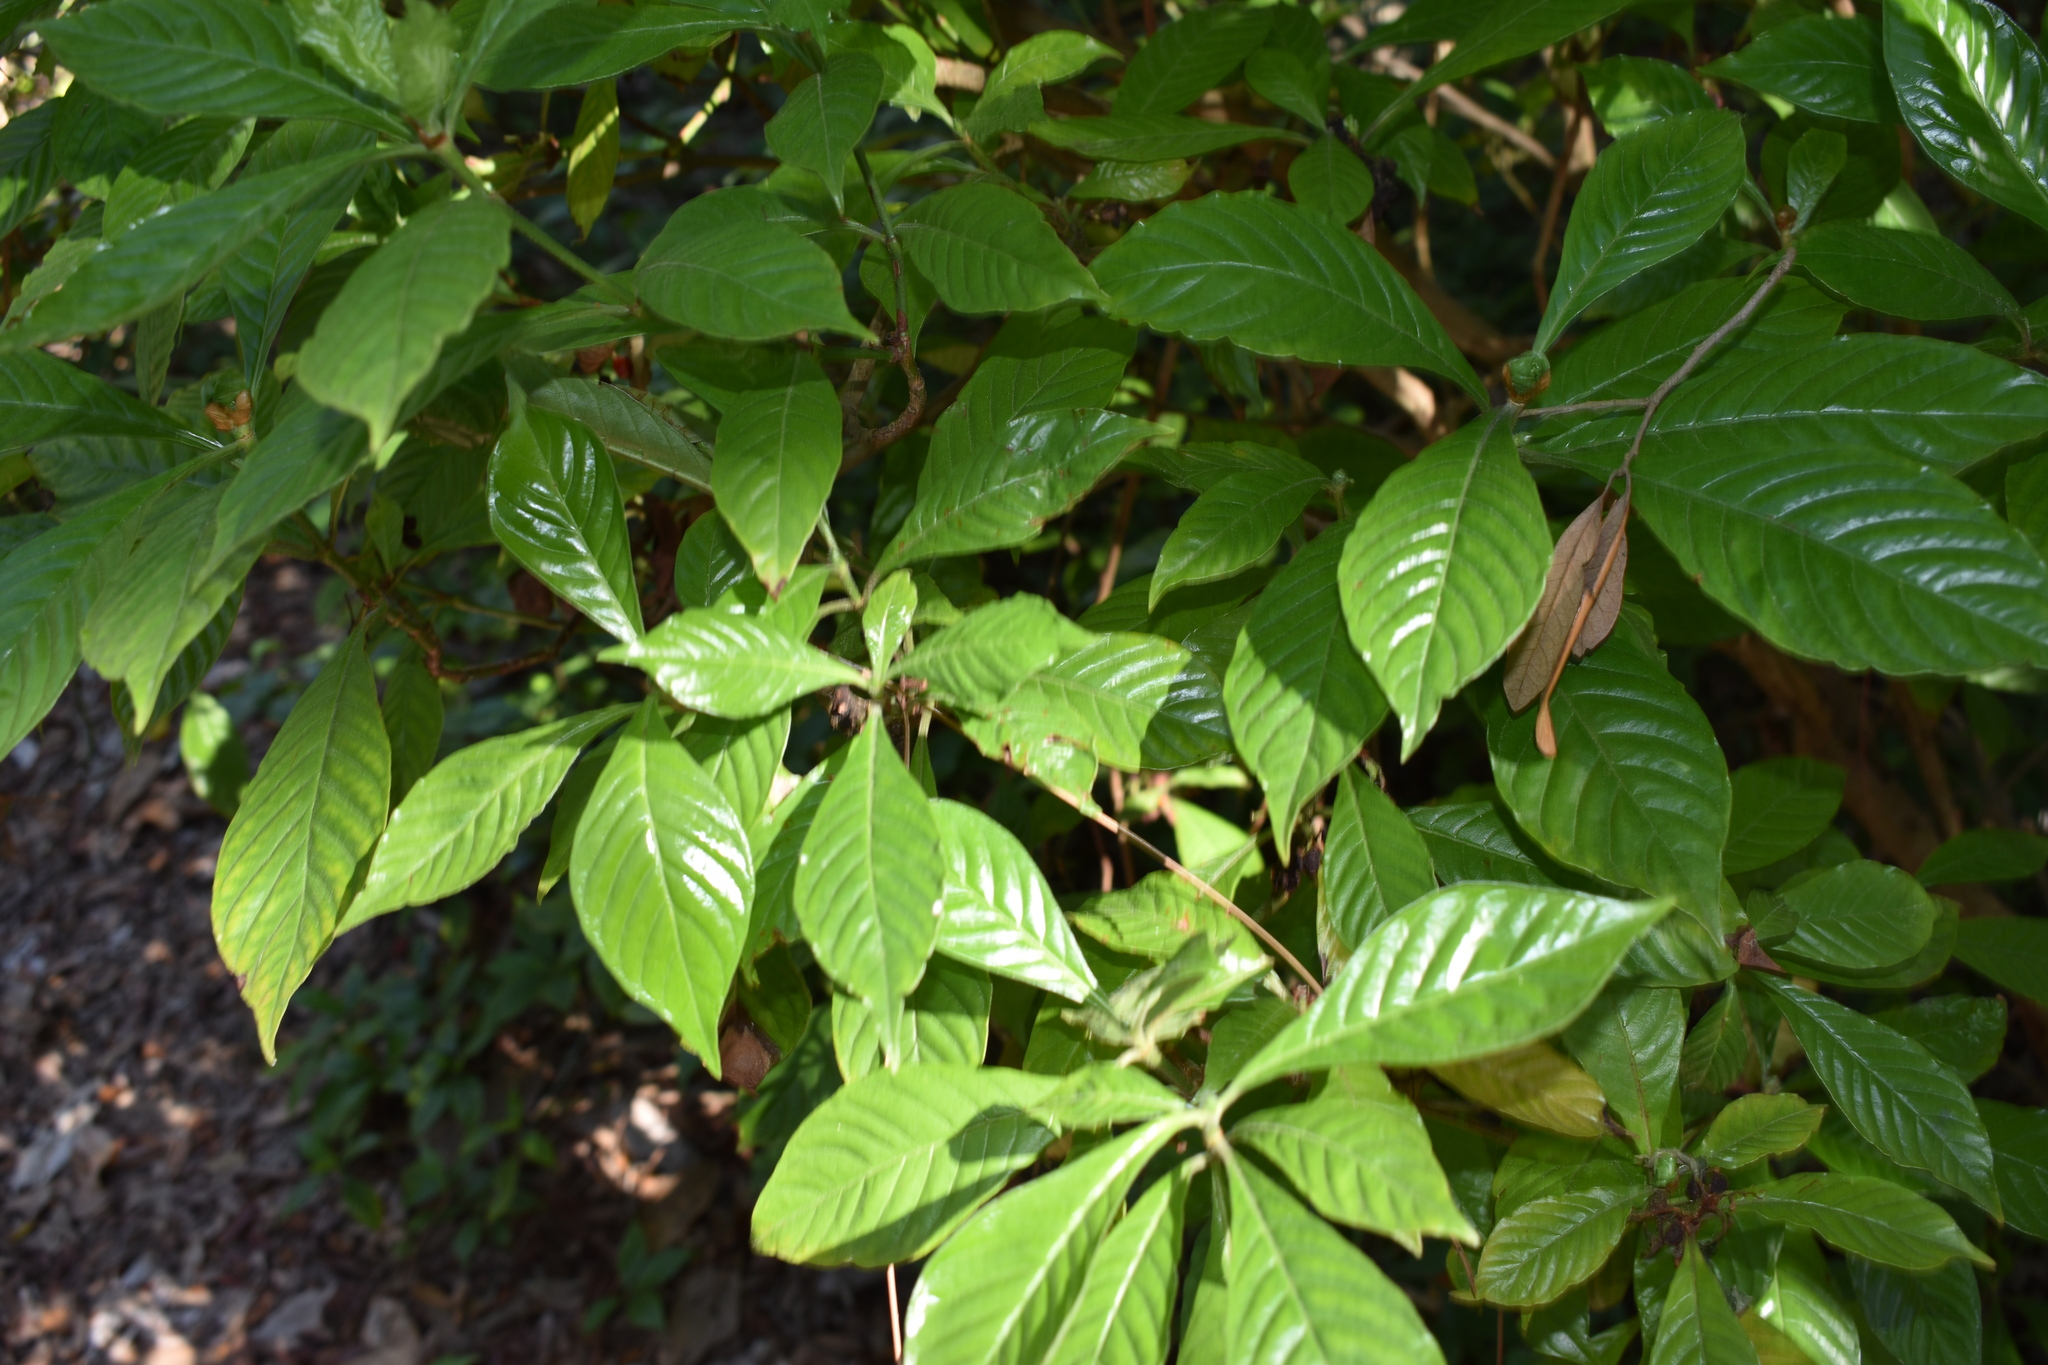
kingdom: Plantae
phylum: Tracheophyta
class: Magnoliopsida
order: Gentianales
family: Rubiaceae
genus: Psychotria
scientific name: Psychotria nervosa
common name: Bastard cankerberry
